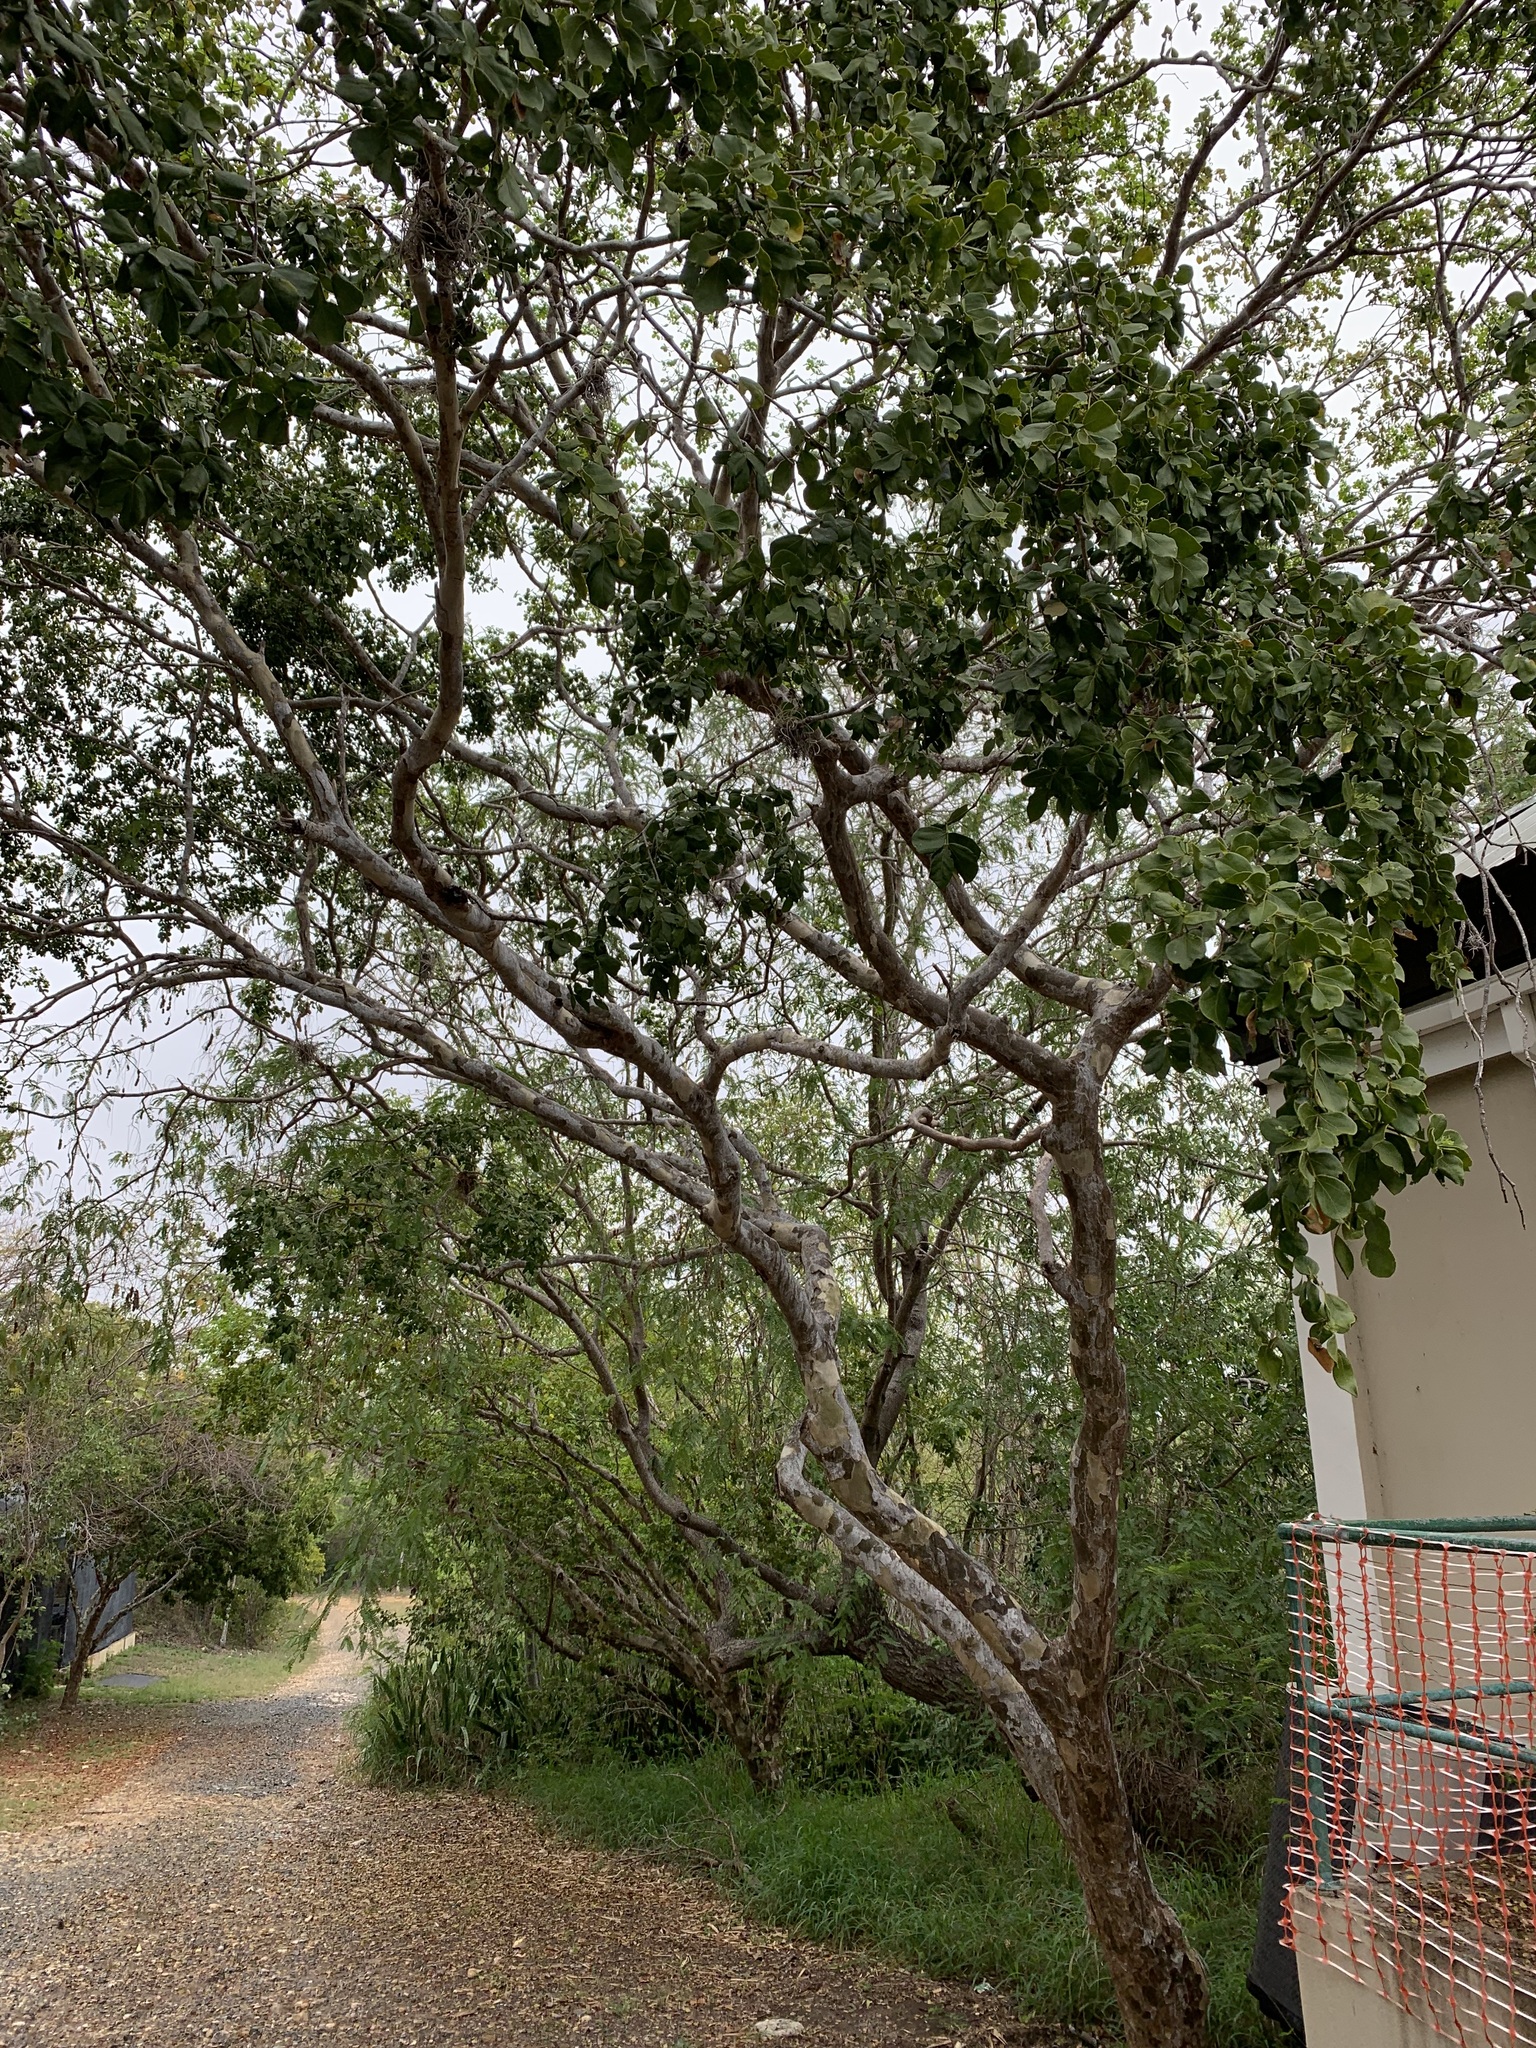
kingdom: Plantae
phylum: Tracheophyta
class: Magnoliopsida
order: Zygophyllales
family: Zygophyllaceae
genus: Guaiacum
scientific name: Guaiacum officinale
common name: Lignum vitae
